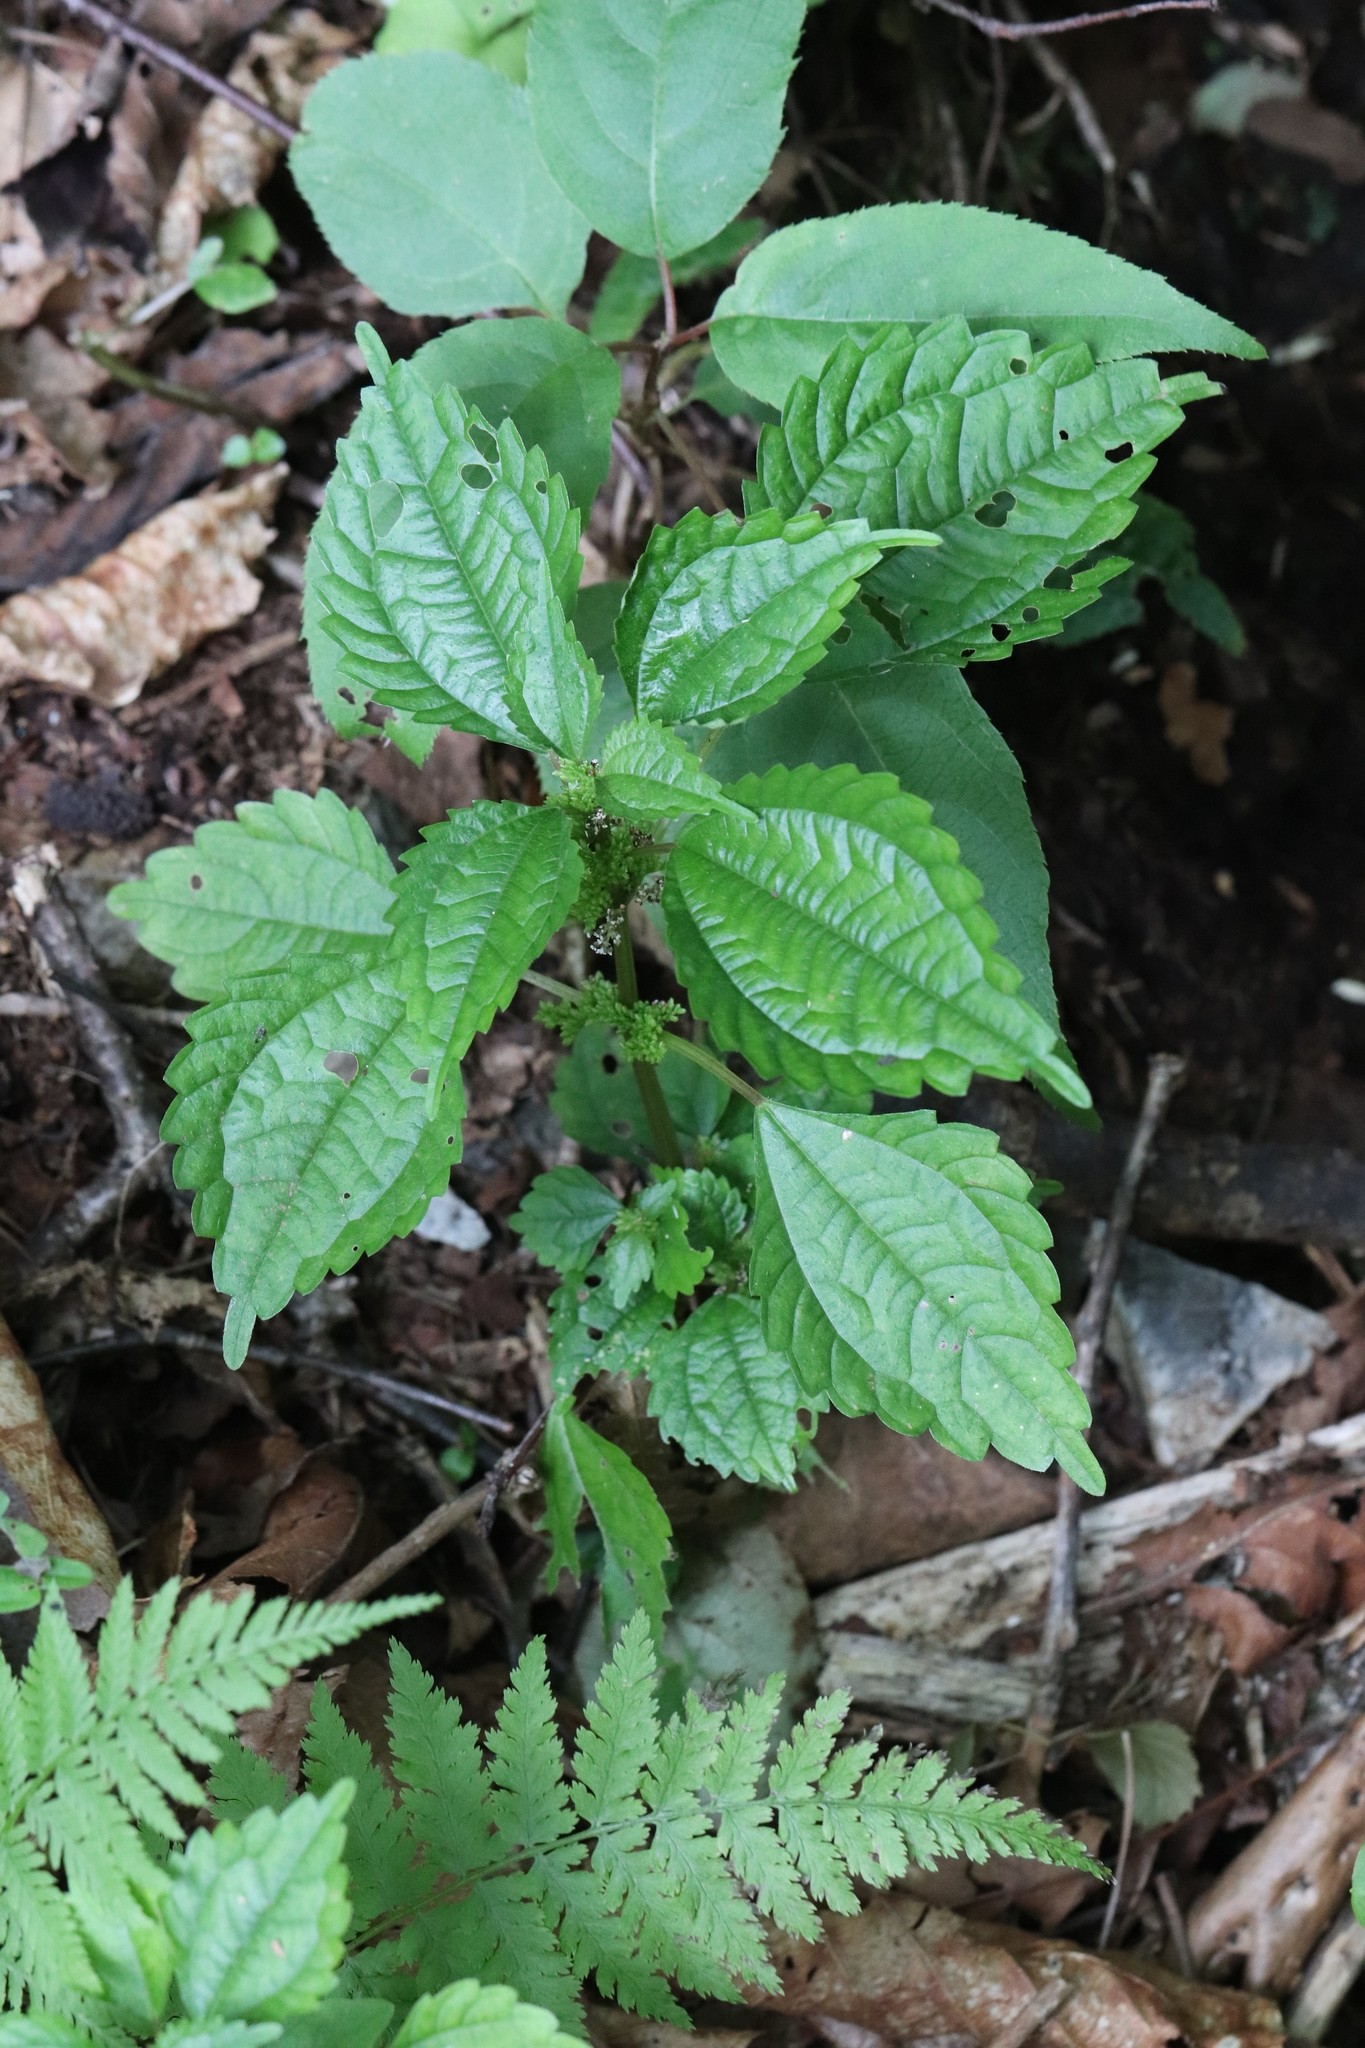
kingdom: Plantae
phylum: Tracheophyta
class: Magnoliopsida
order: Rosales
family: Urticaceae
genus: Pilea
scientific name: Pilea pumila
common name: Clearweed
